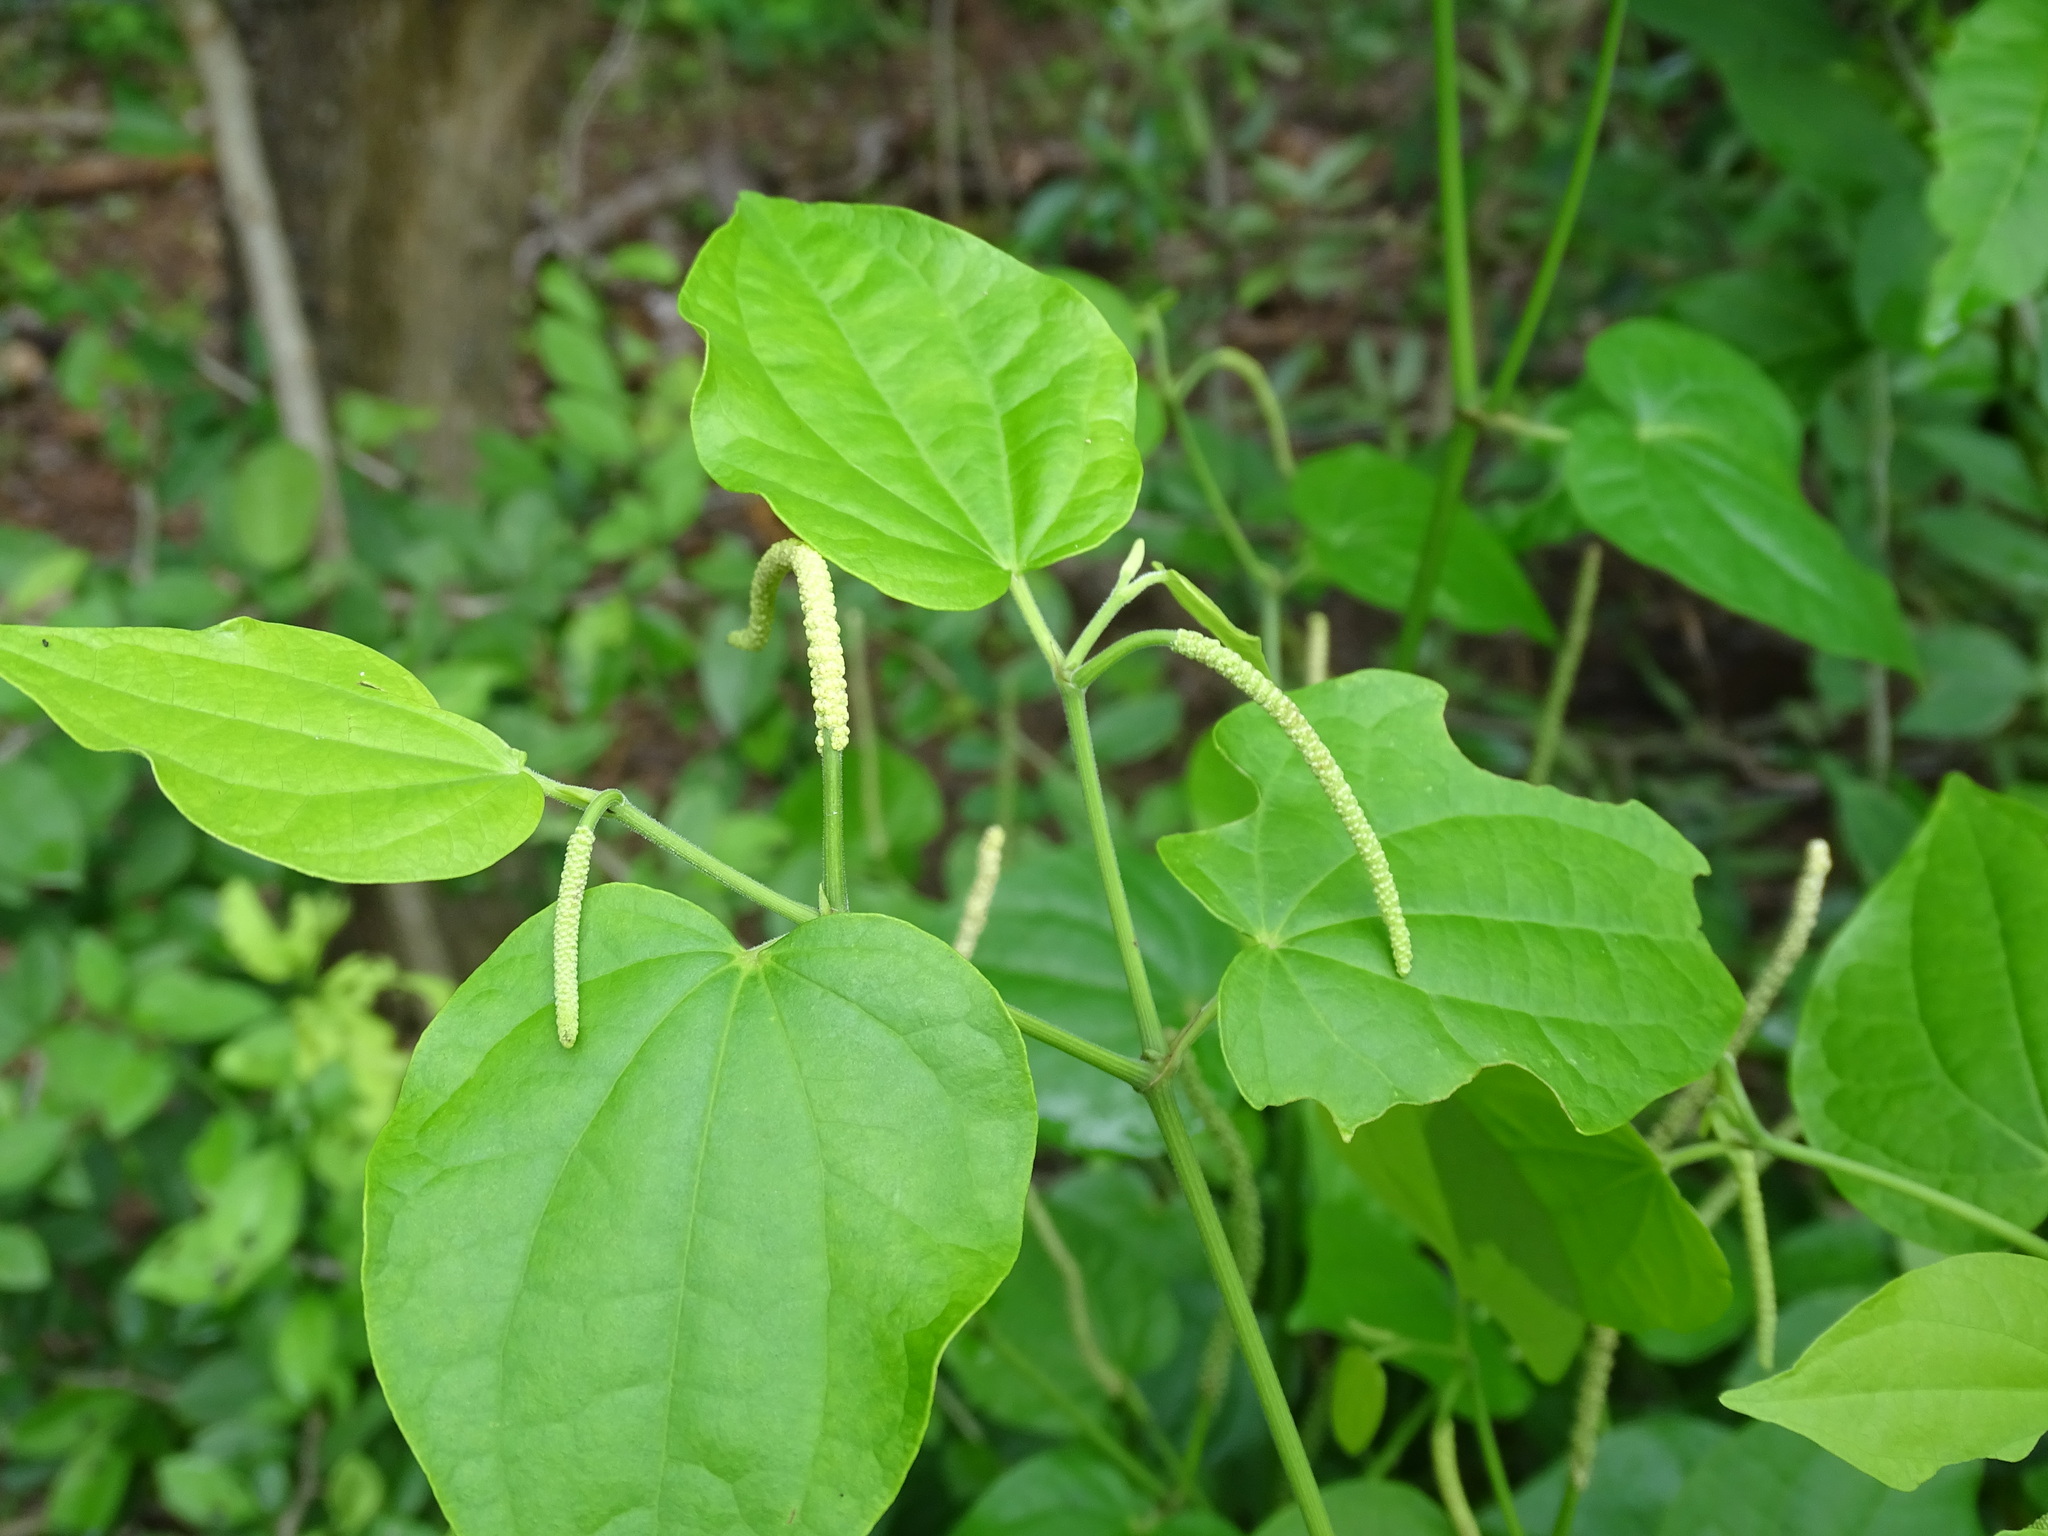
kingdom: Plantae
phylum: Tracheophyta
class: Magnoliopsida
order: Piperales
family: Piperaceae
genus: Piper
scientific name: Piper guazacapanense
